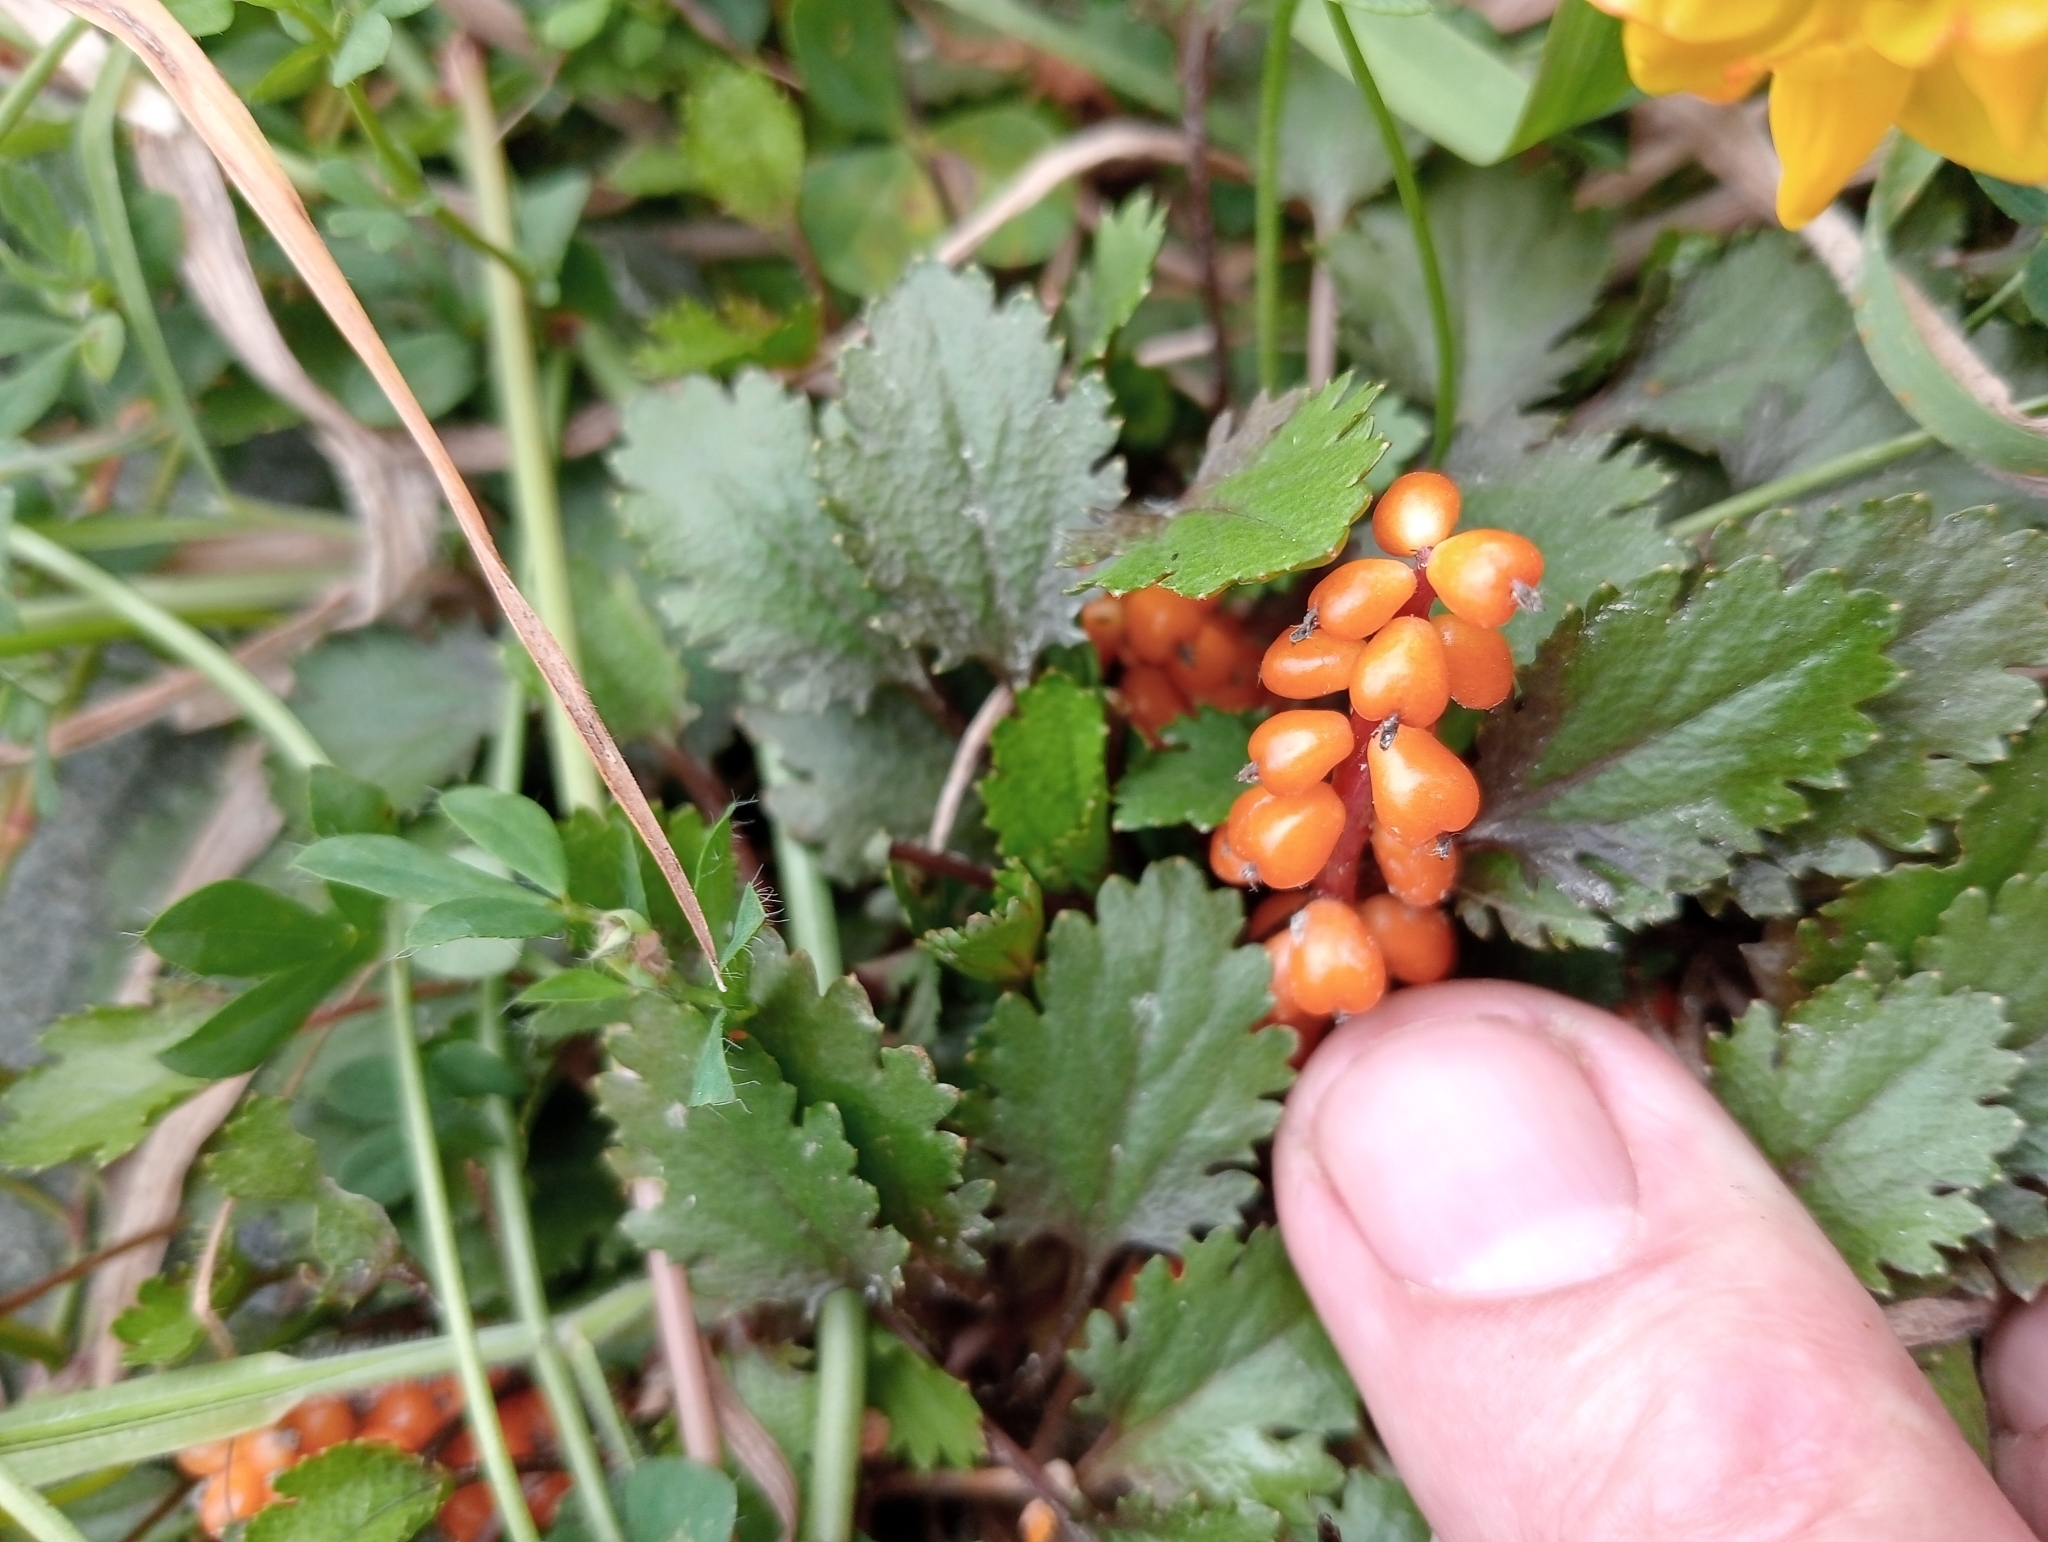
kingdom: Plantae
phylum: Tracheophyta
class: Magnoliopsida
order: Gunnerales
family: Gunneraceae
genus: Gunnera
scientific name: Gunnera dentata
